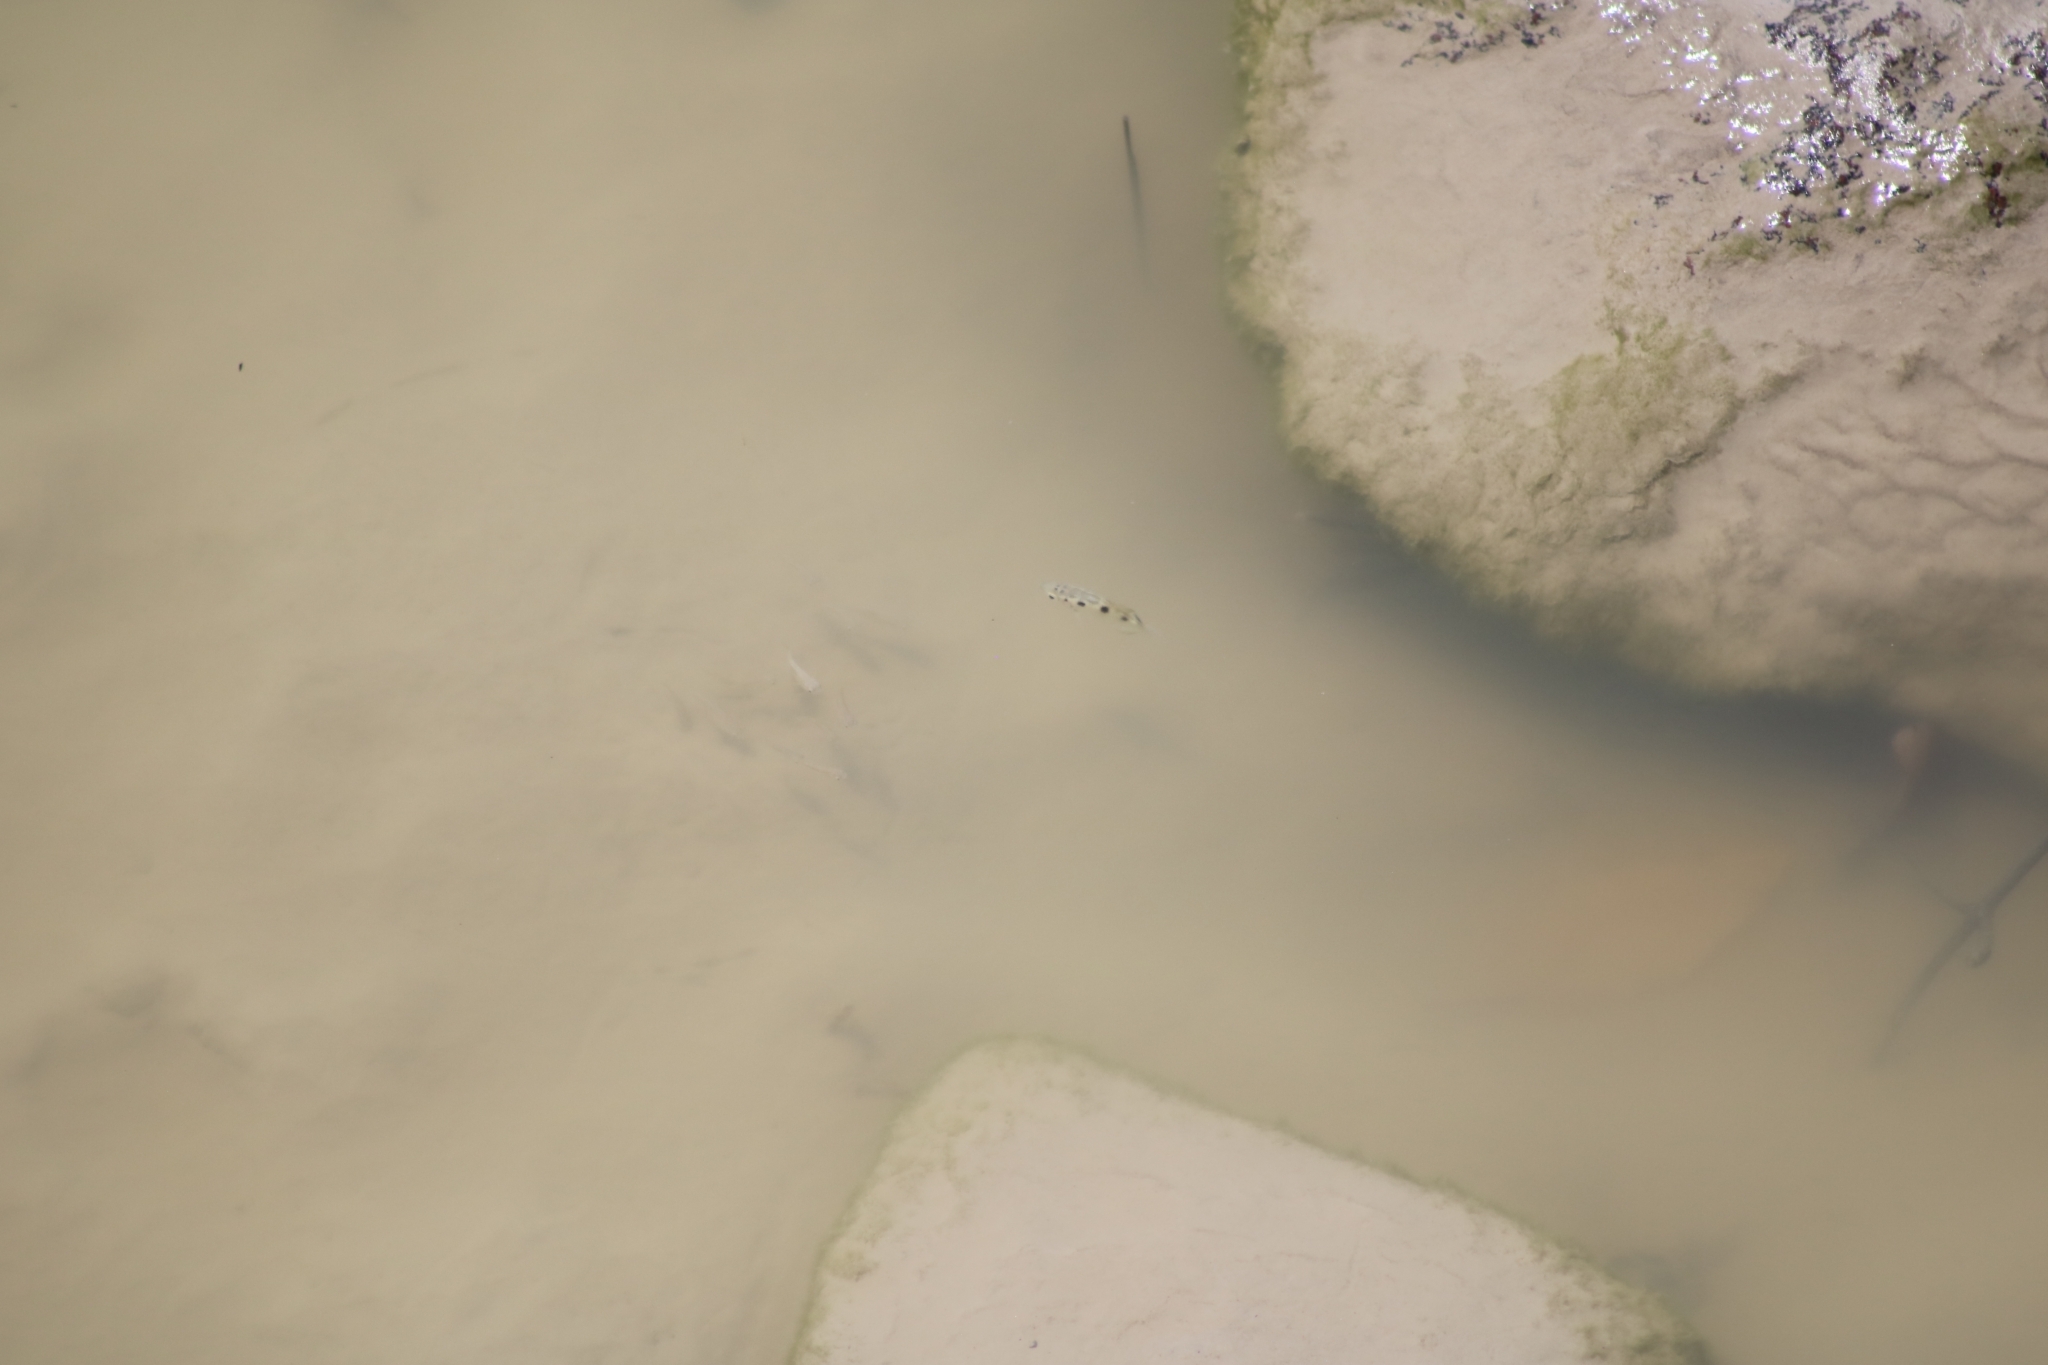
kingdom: Animalia
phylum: Chordata
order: Perciformes
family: Toxotidae
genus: Toxotes
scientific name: Toxotes chatareus
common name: Spotted archerfish
